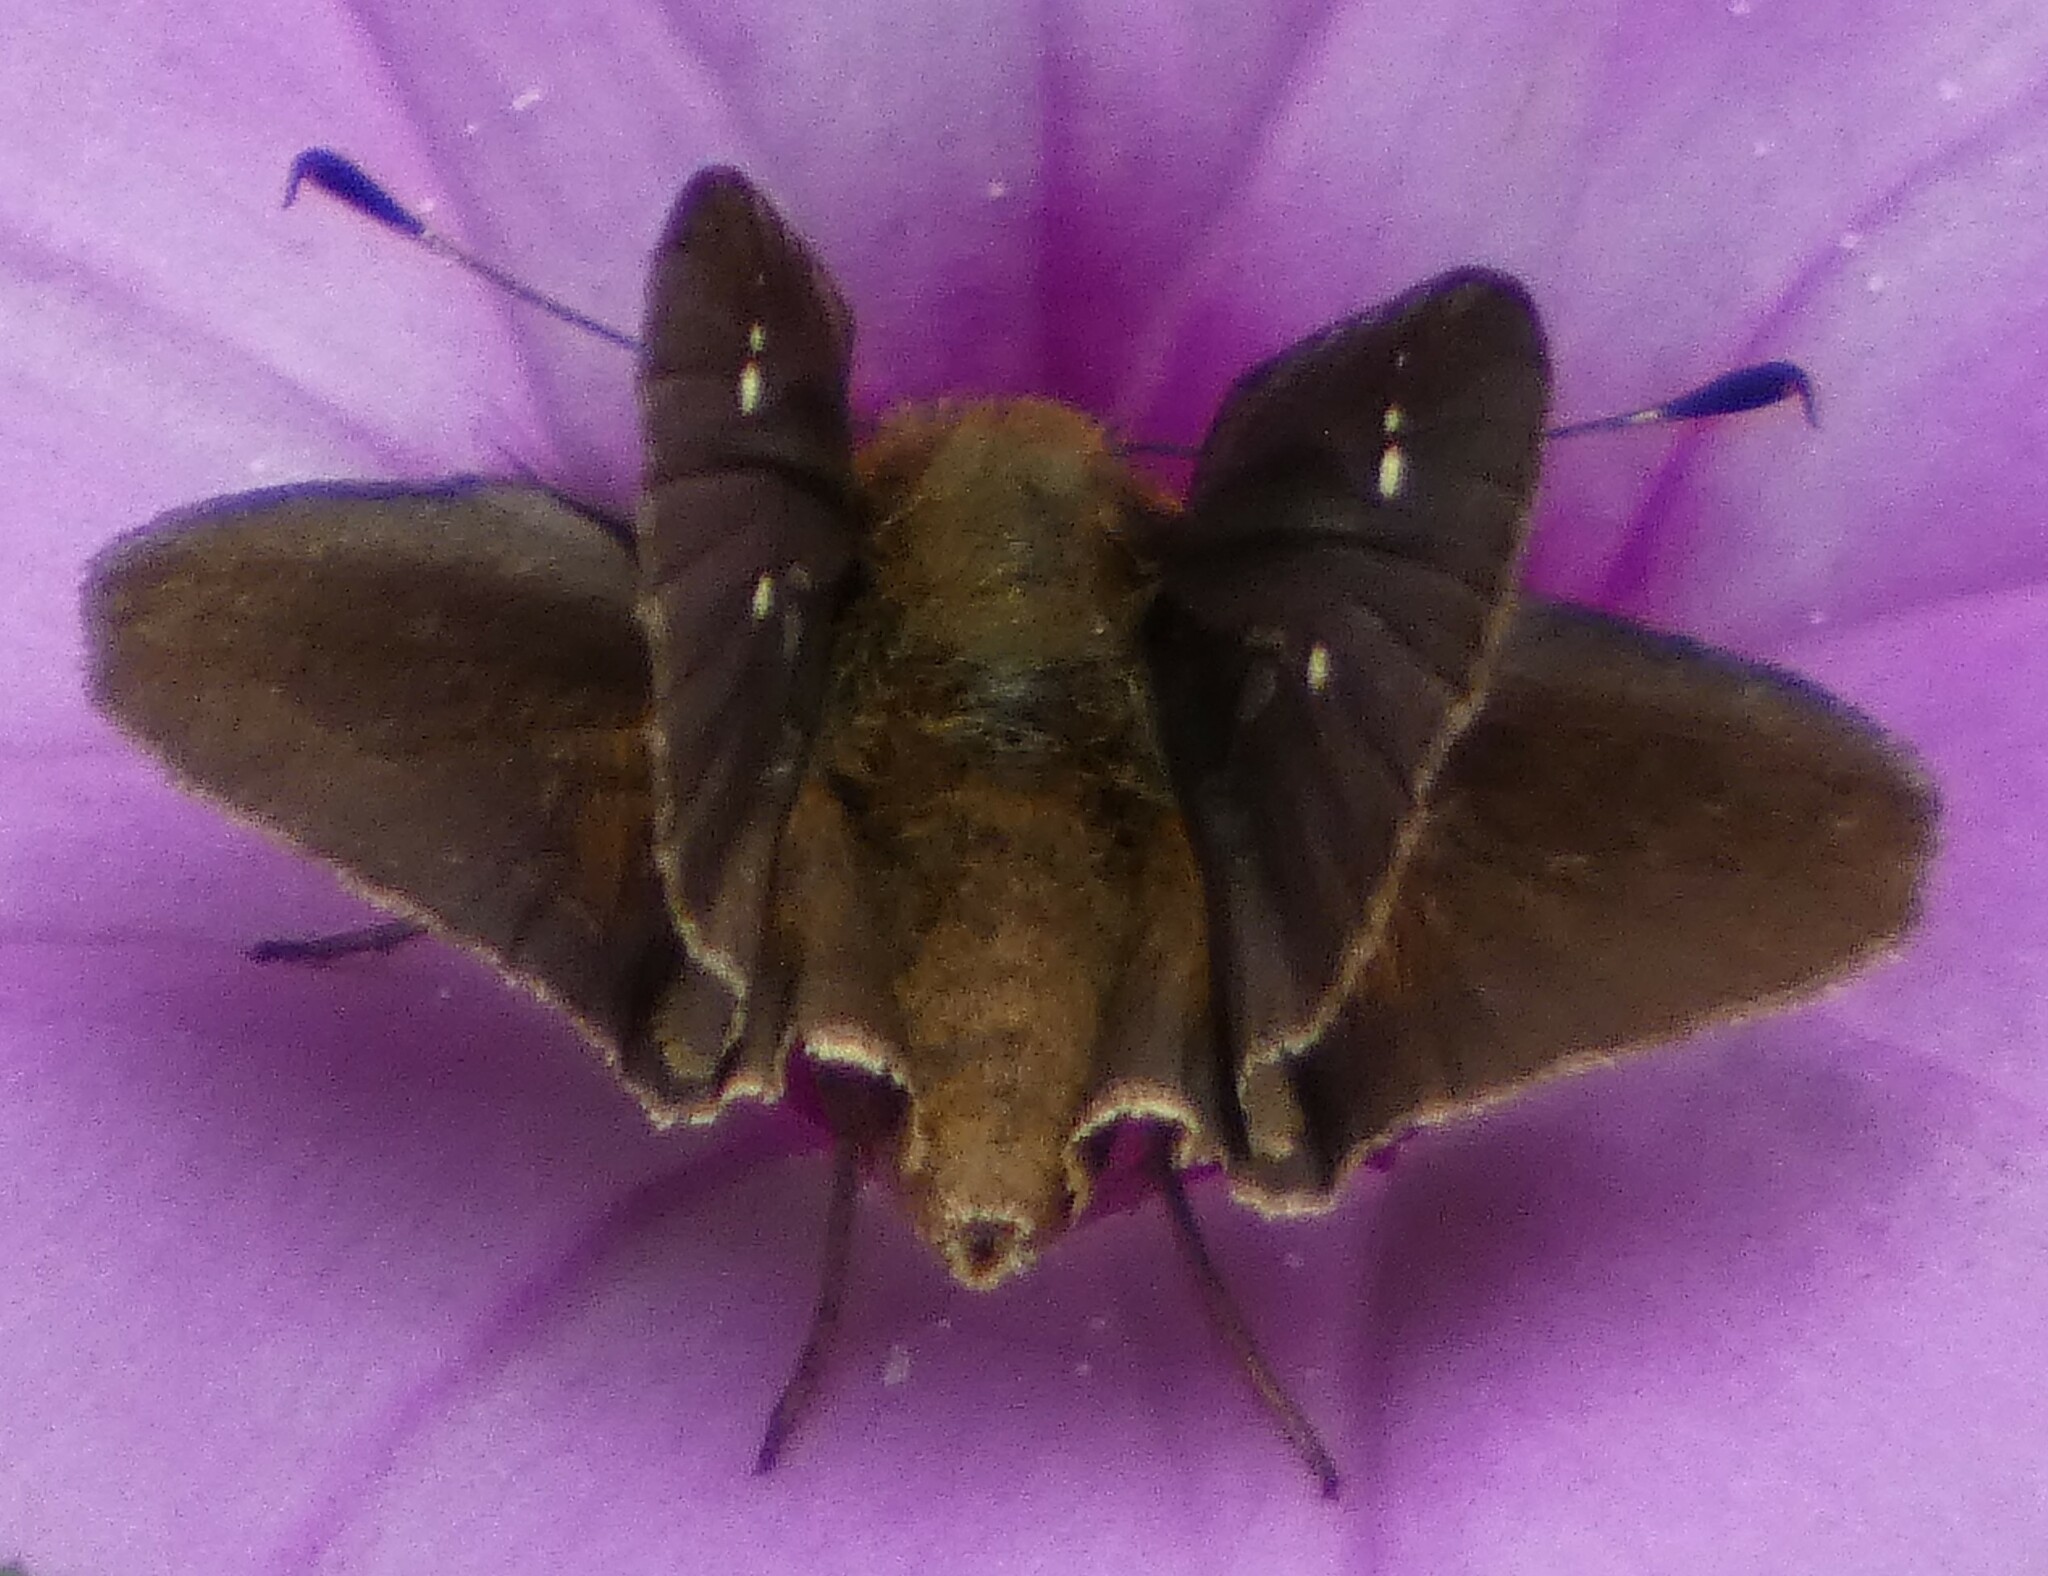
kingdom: Animalia
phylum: Arthropoda
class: Insecta
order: Lepidoptera
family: Hesperiidae
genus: Lerema
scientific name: Lerema accius
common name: Clouded skipper
